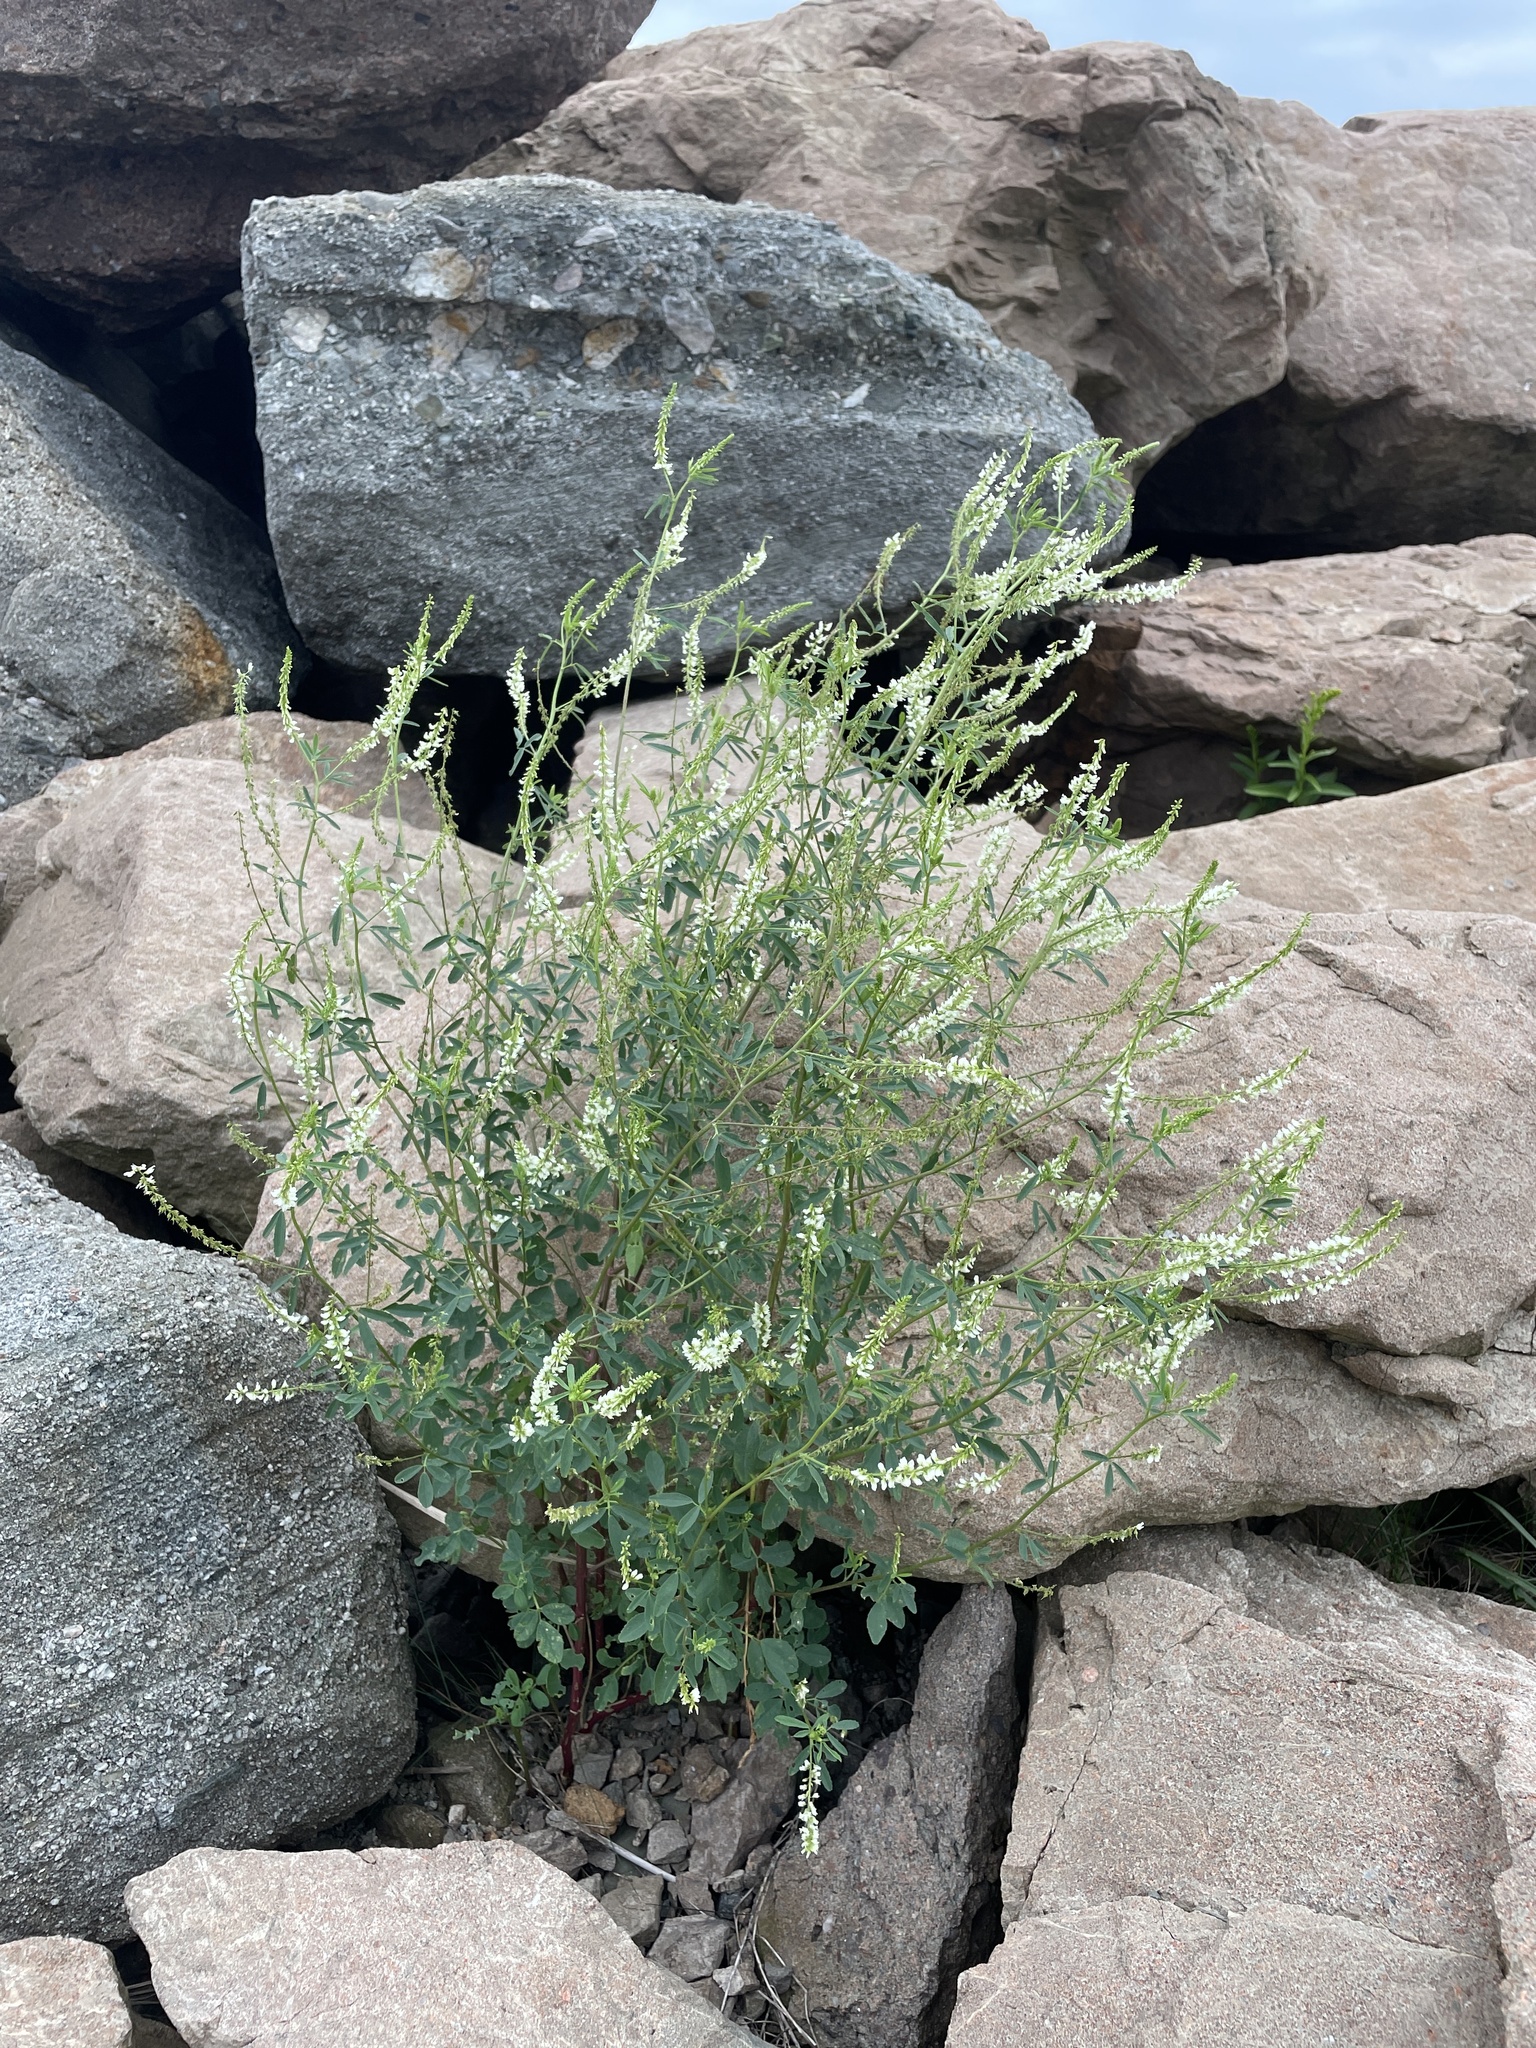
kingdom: Plantae
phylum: Tracheophyta
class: Magnoliopsida
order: Fabales
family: Fabaceae
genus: Melilotus
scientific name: Melilotus albus
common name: White melilot
